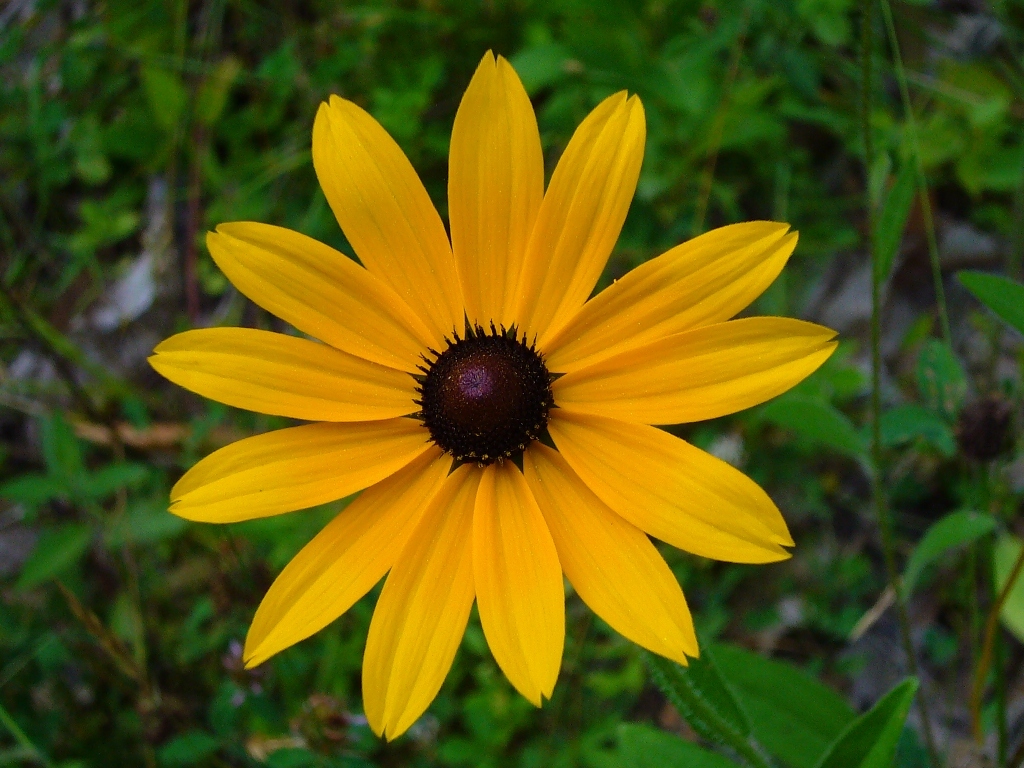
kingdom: Plantae
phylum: Tracheophyta
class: Magnoliopsida
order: Asterales
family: Asteraceae
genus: Rudbeckia
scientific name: Rudbeckia hirta
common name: Black-eyed-susan
